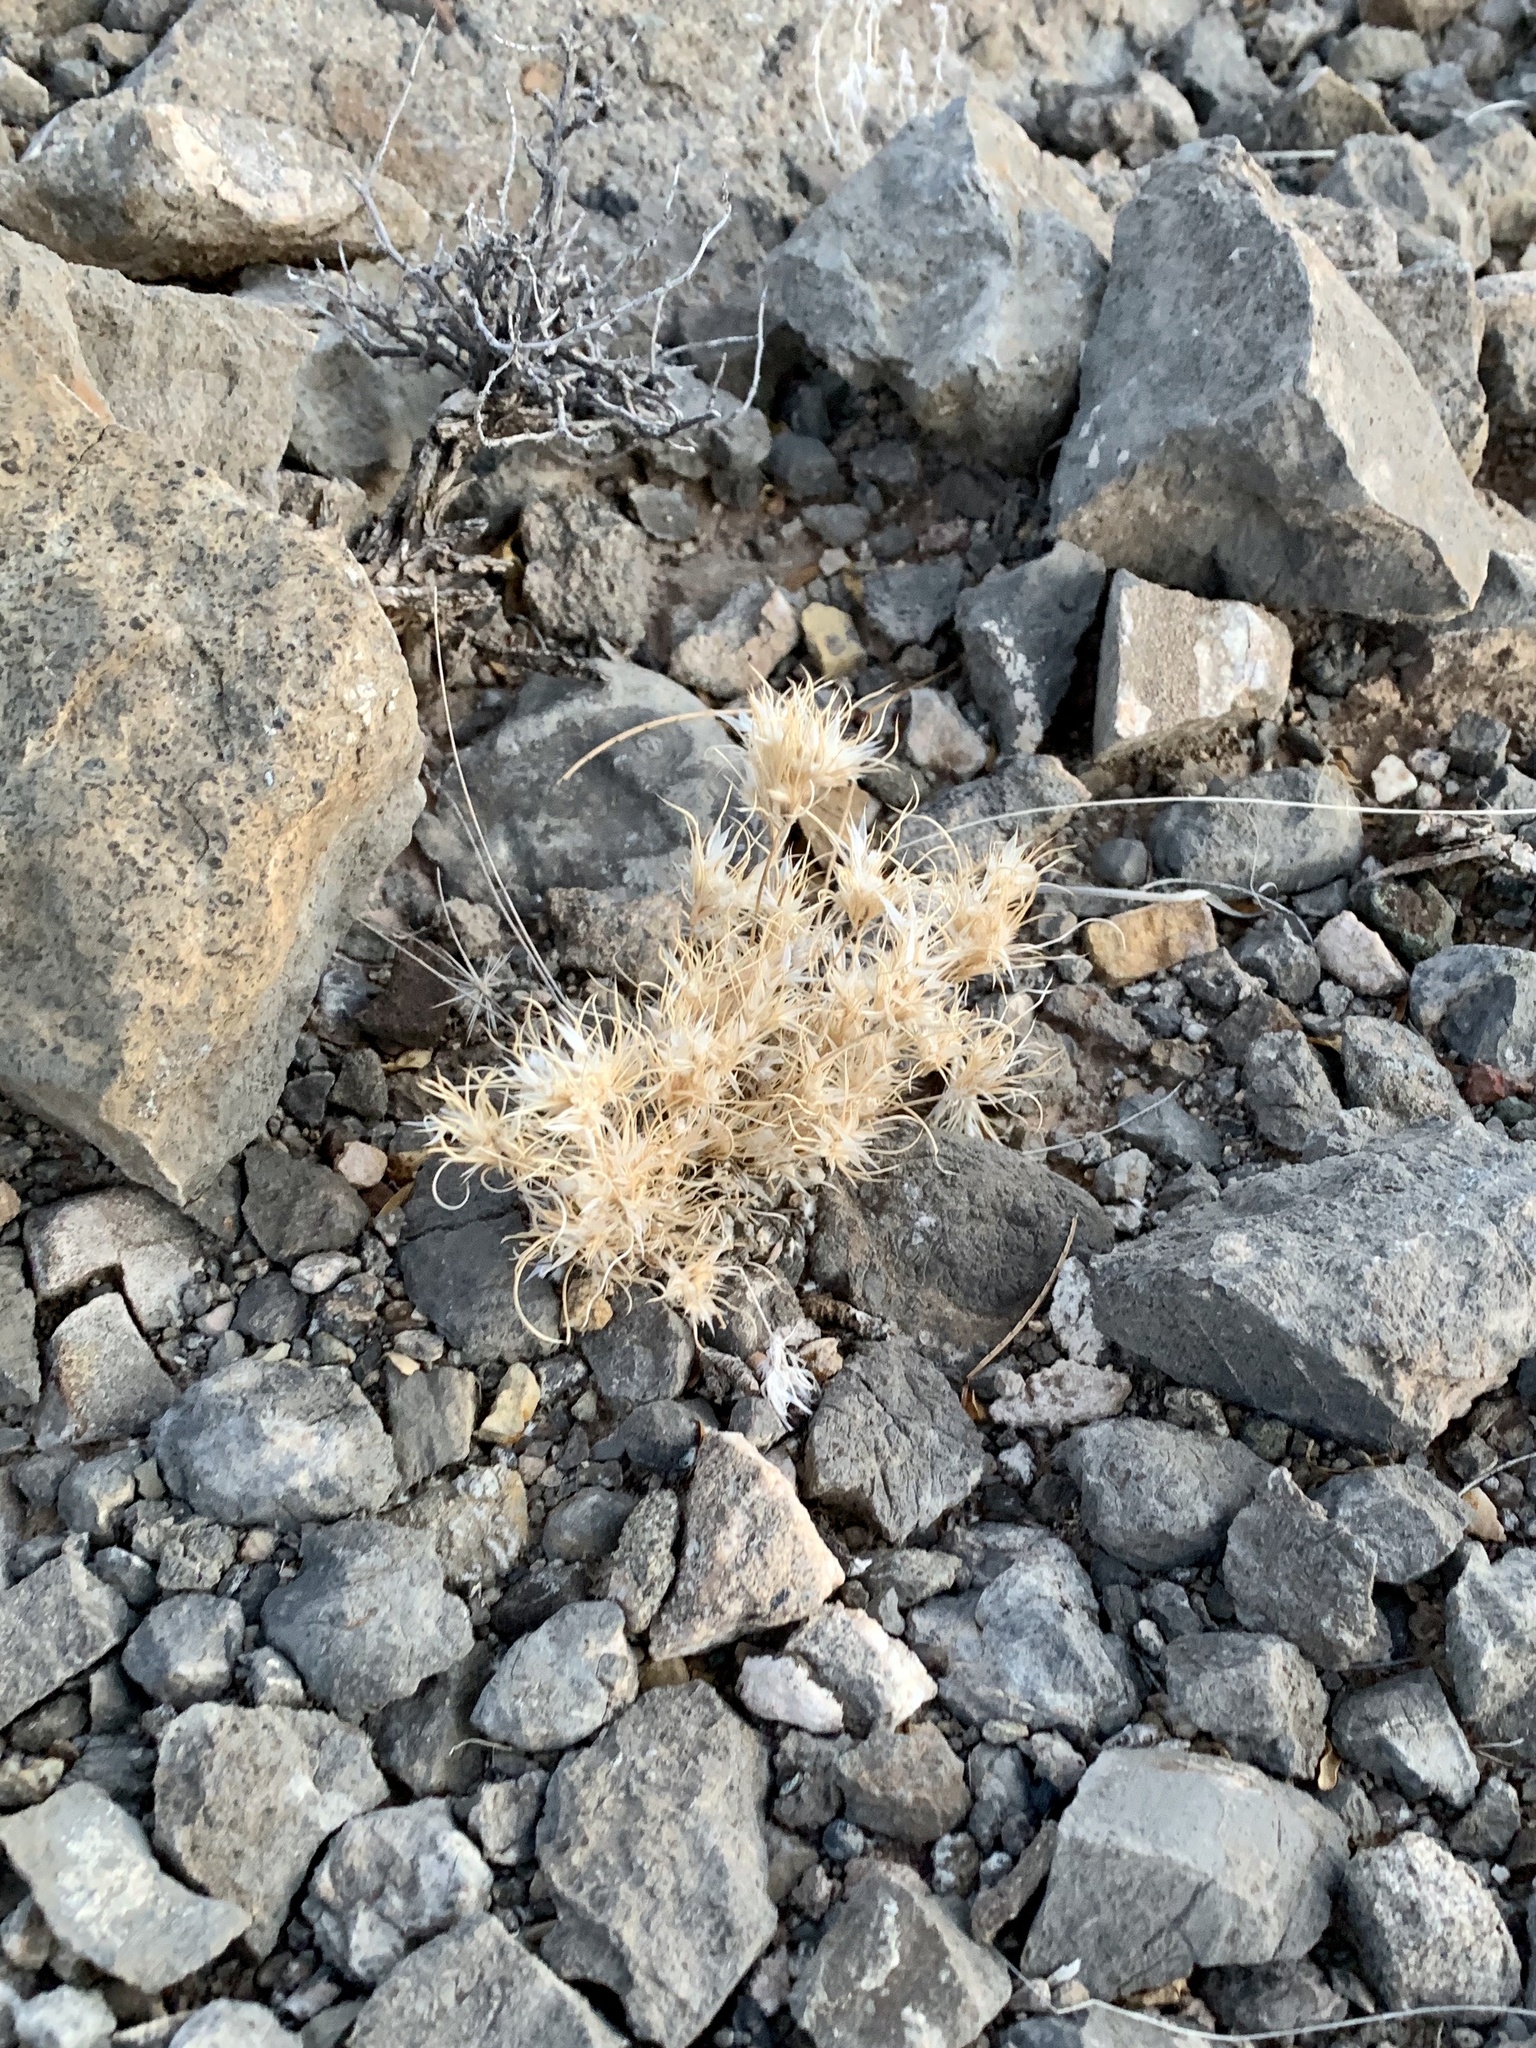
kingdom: Plantae
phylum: Tracheophyta
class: Liliopsida
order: Poales
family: Poaceae
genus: Dasyochloa
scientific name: Dasyochloa pulchella
